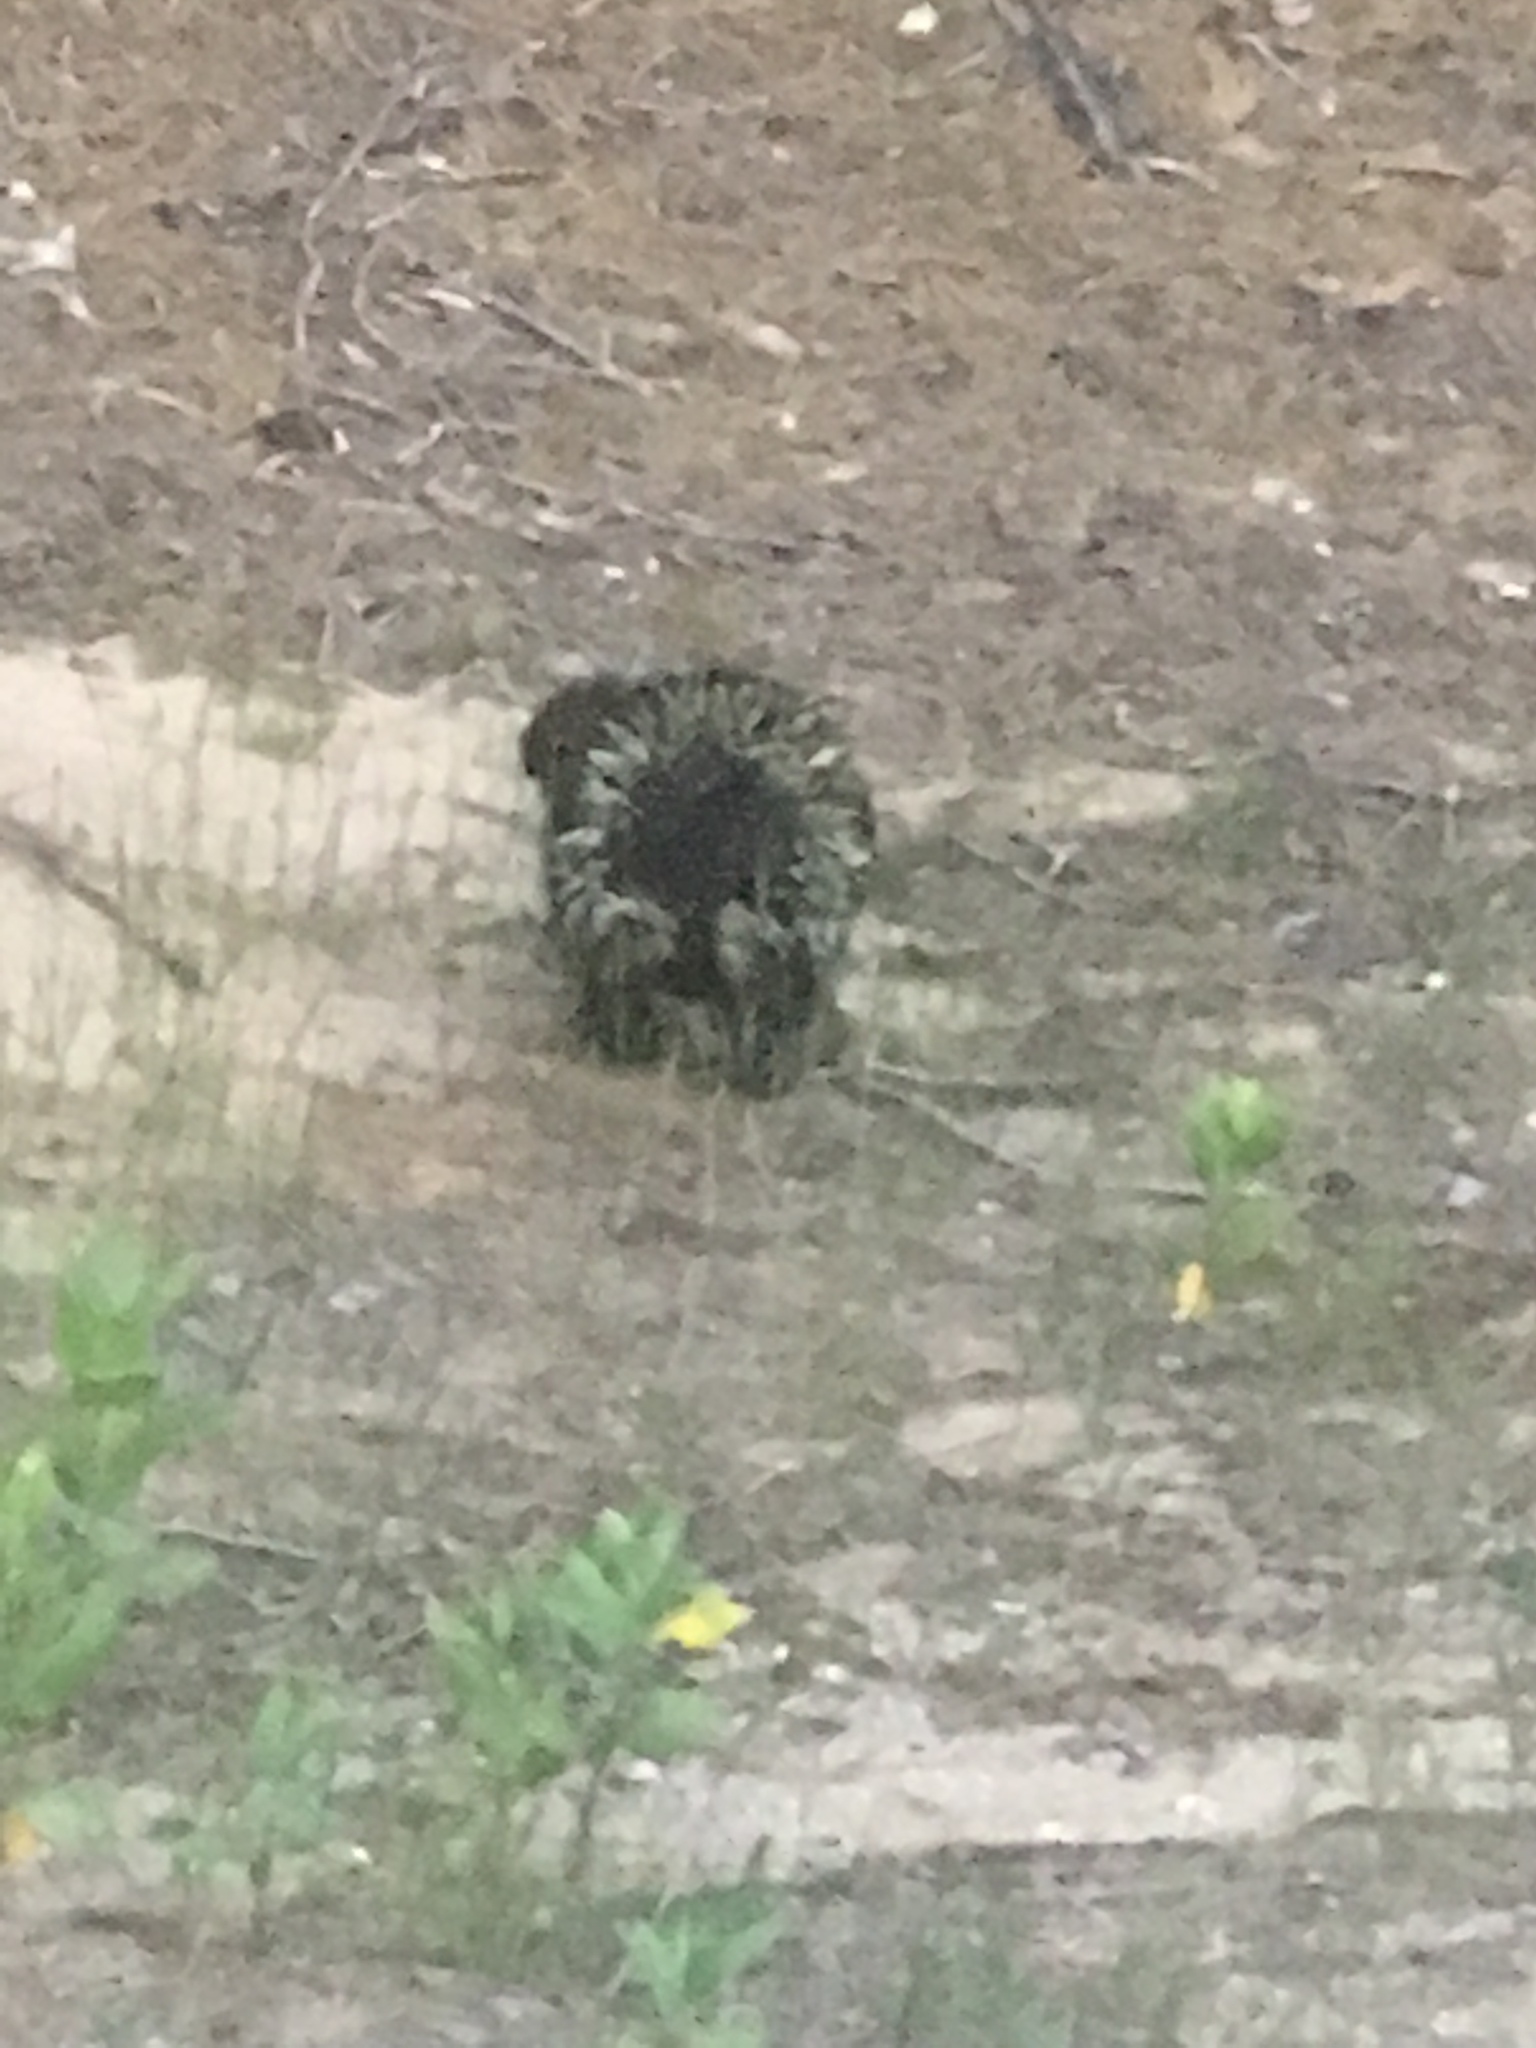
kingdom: Animalia
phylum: Chordata
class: Mammalia
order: Rodentia
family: Erethizontidae
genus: Erethizon
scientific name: Erethizon dorsatus
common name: North american porcupine
